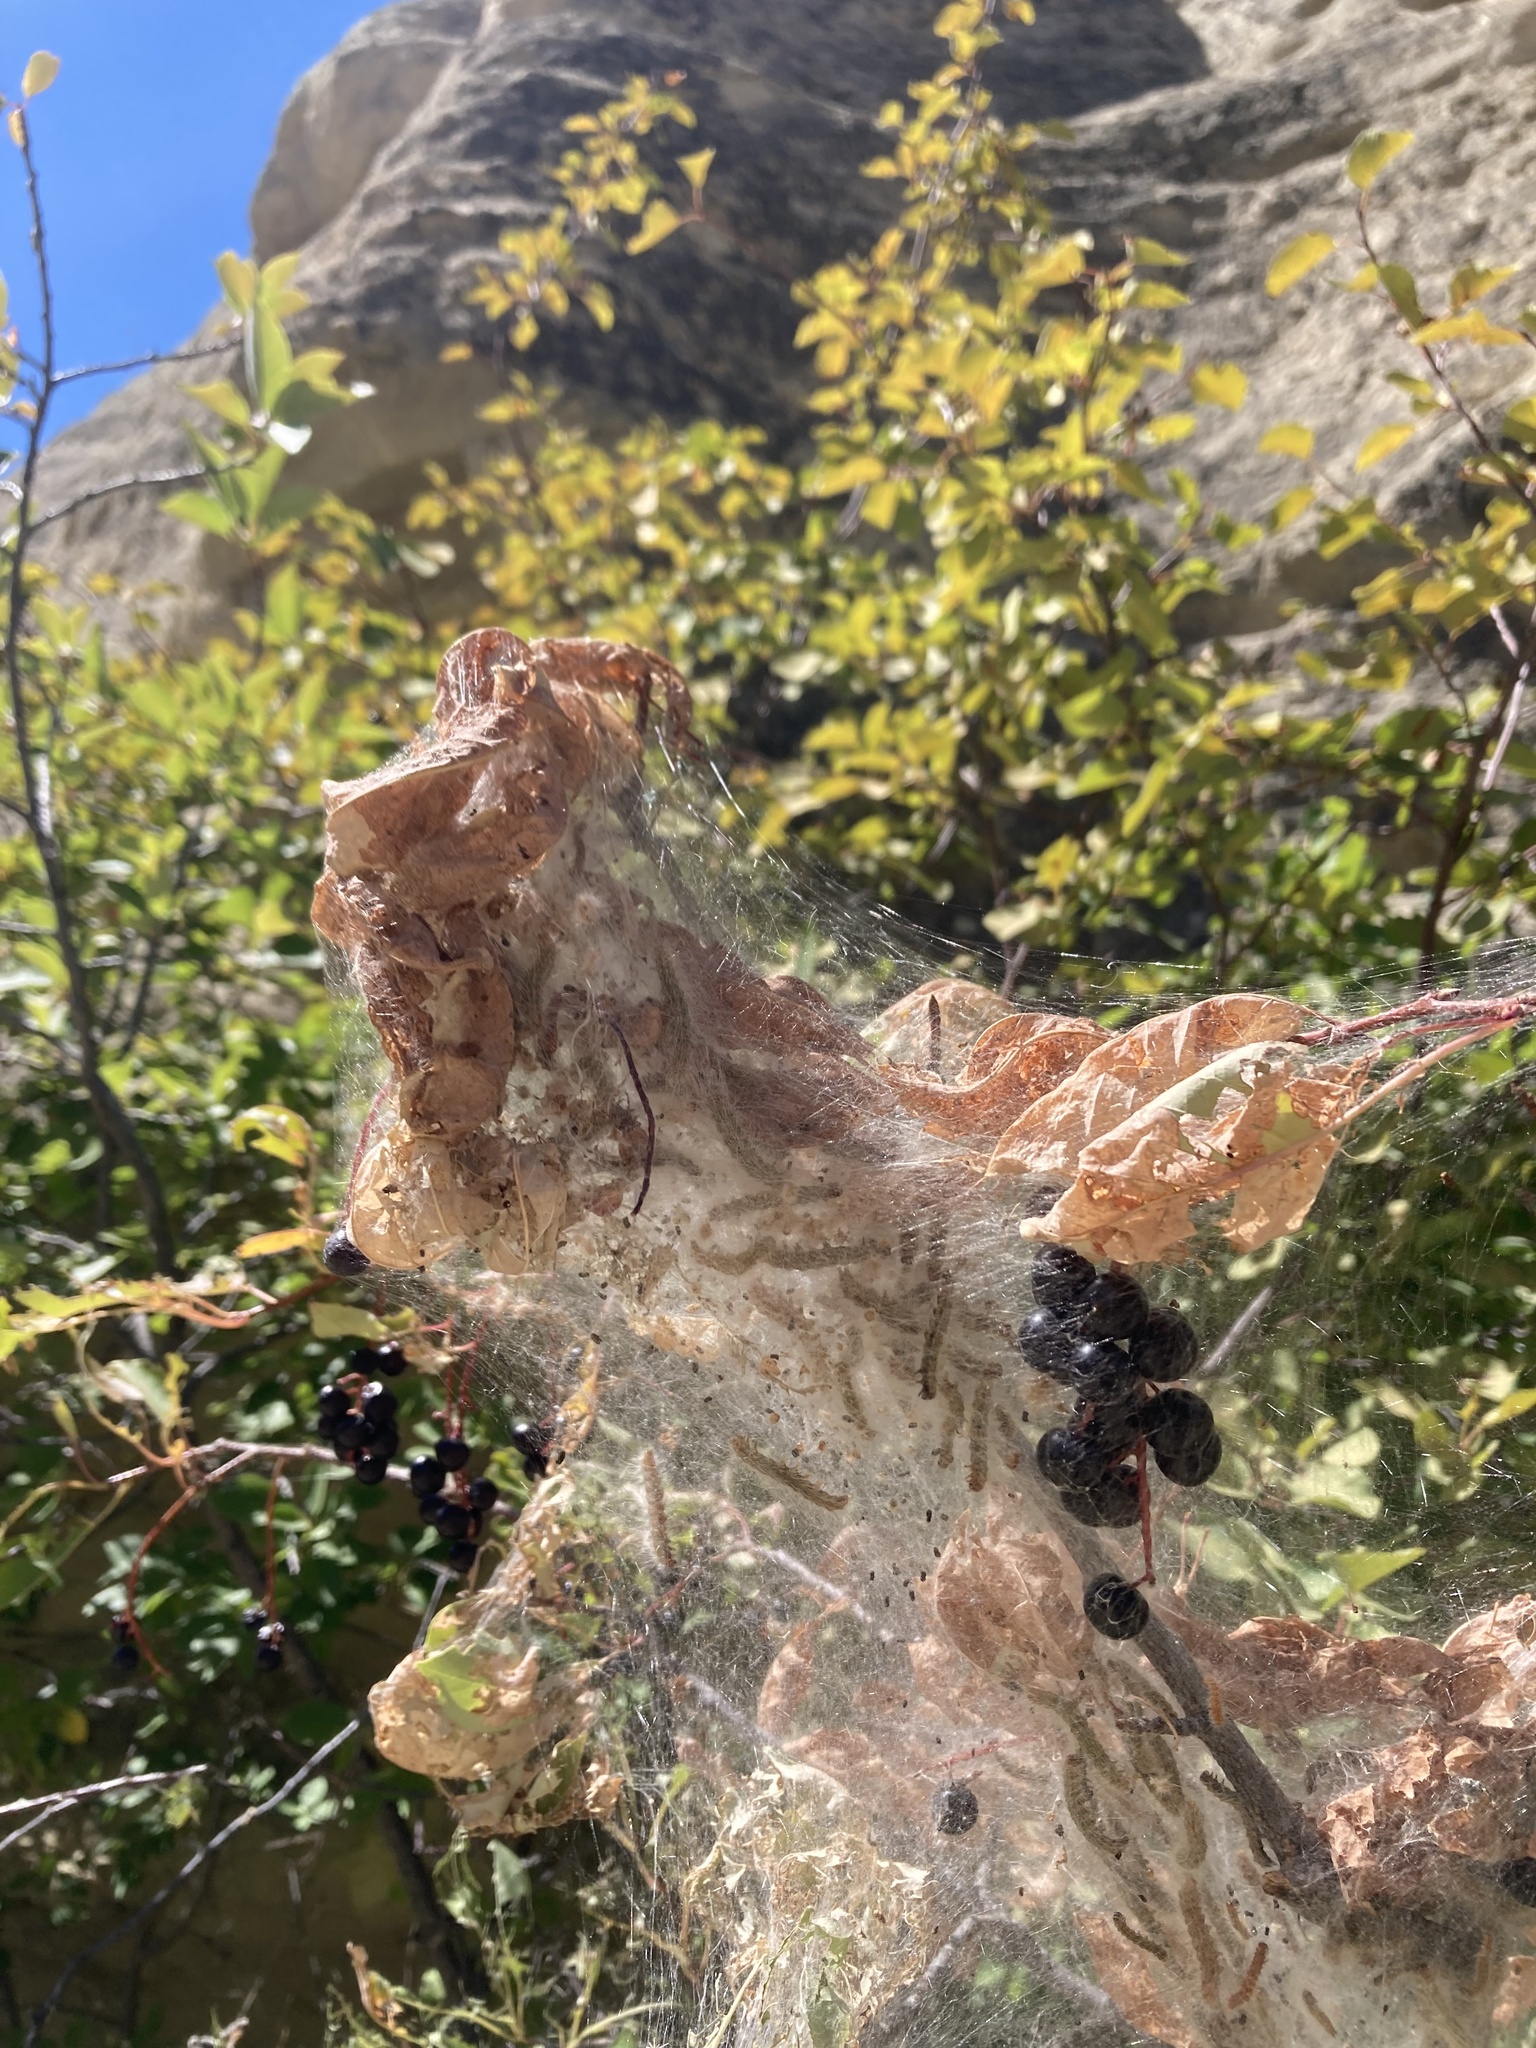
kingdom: Animalia
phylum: Arthropoda
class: Insecta
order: Lepidoptera
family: Erebidae
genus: Hyphantria
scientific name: Hyphantria cunea
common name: American white moth
